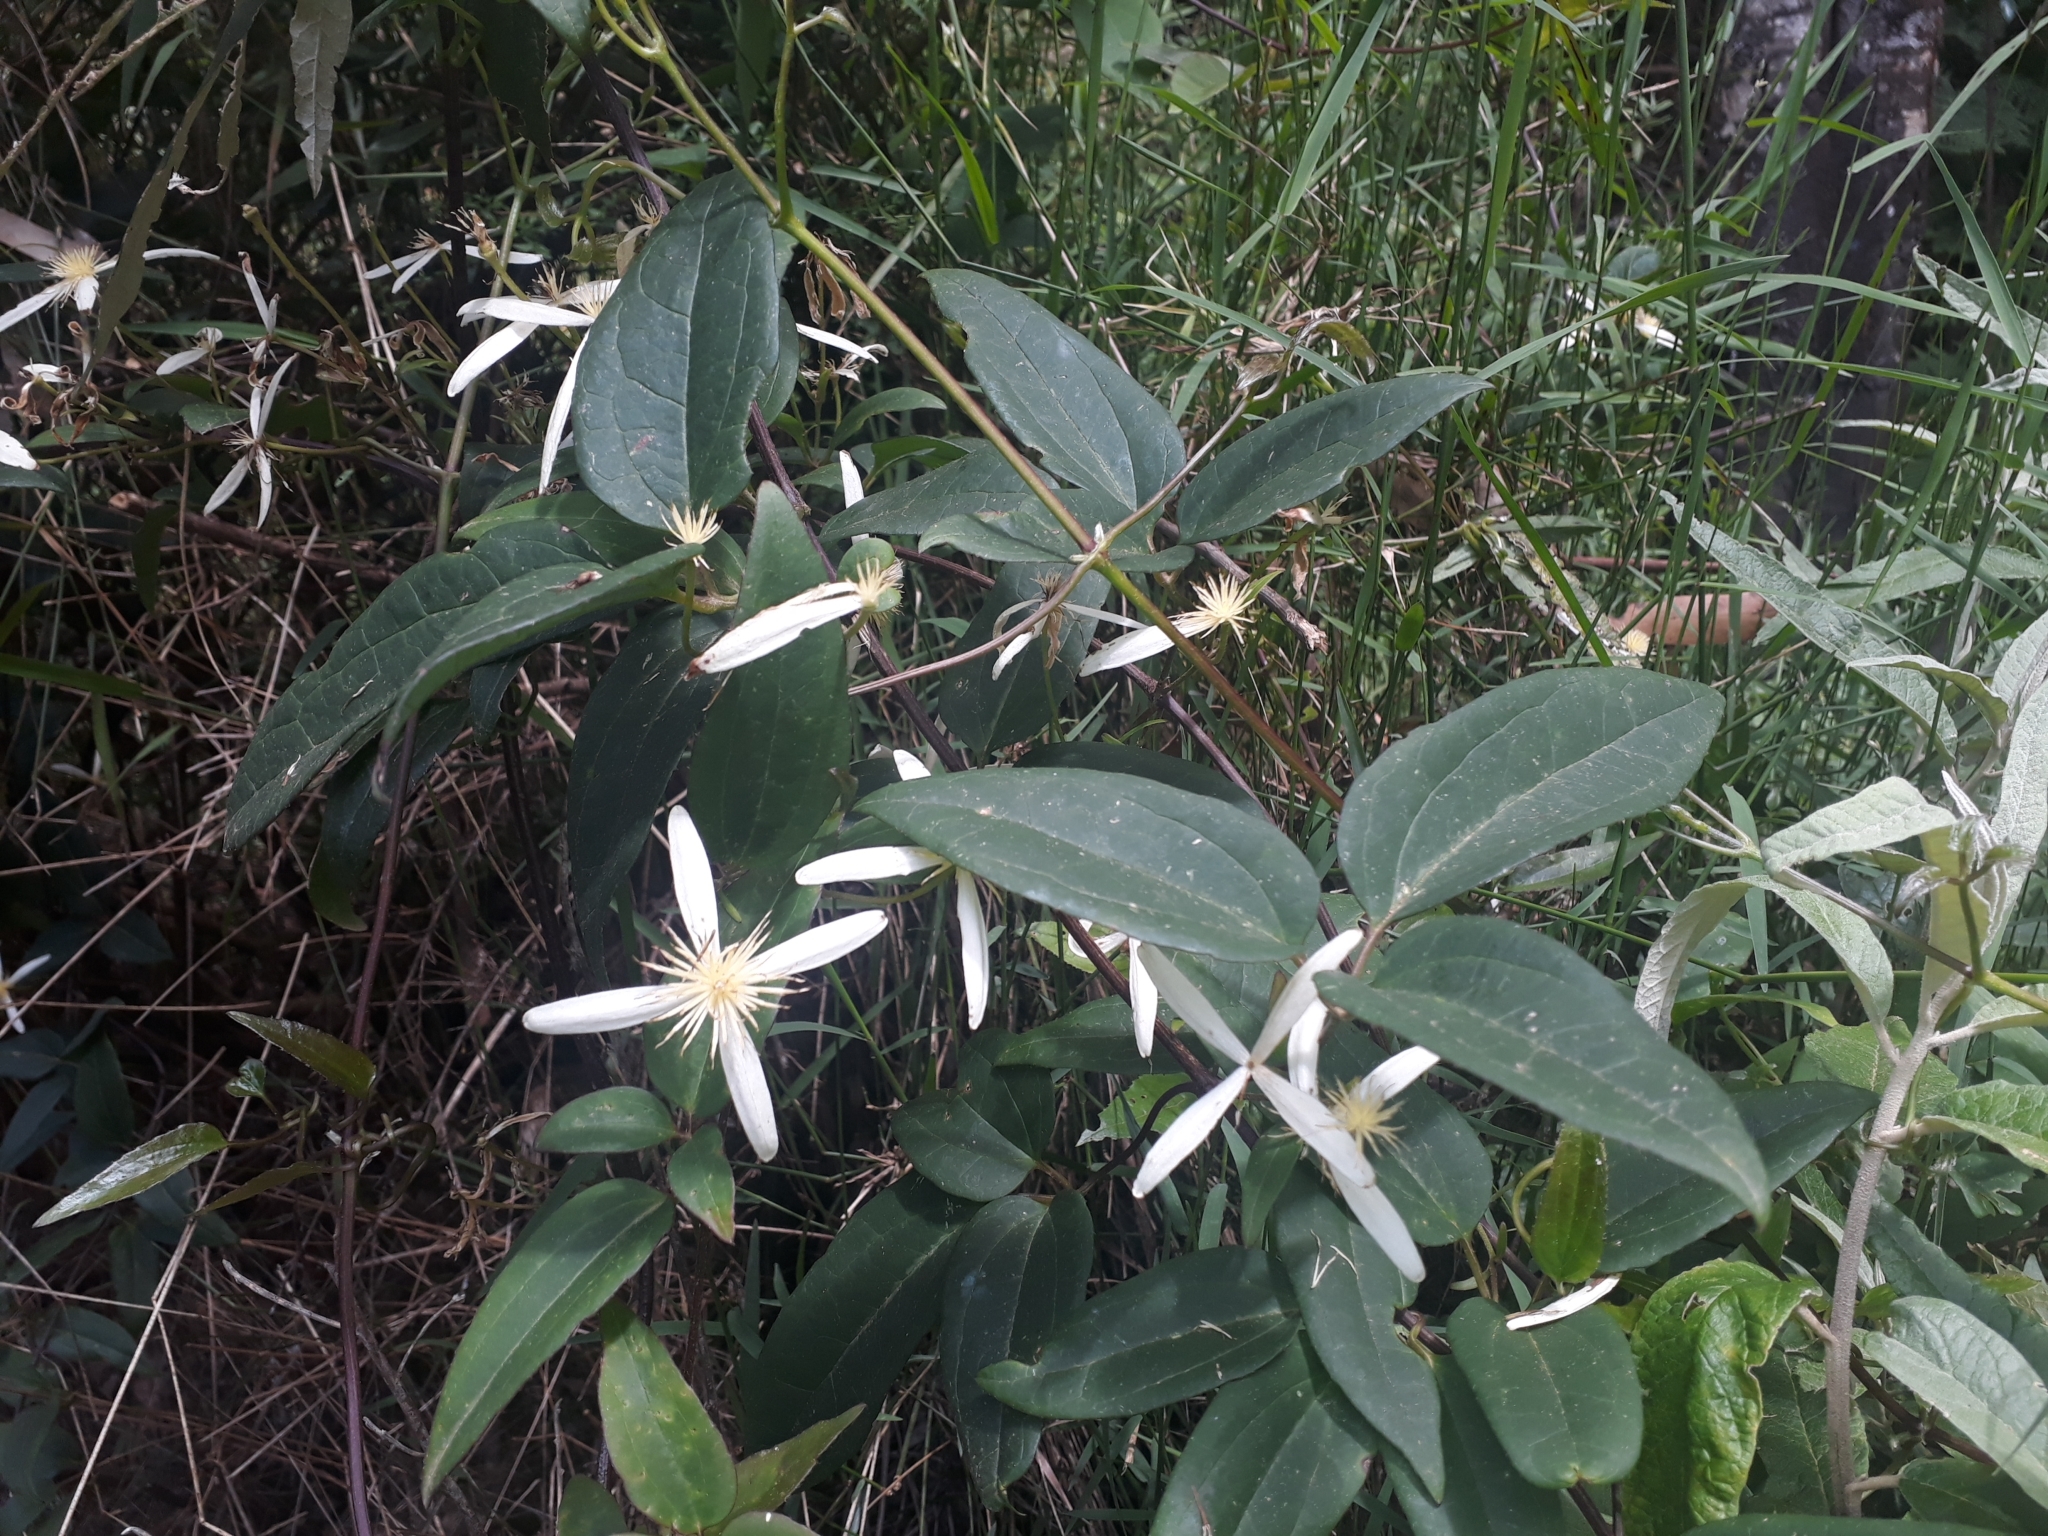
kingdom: Plantae
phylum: Tracheophyta
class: Magnoliopsida
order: Ranunculales
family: Ranunculaceae
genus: Clematis
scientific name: Clematis glycinoides
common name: Forest clematis
